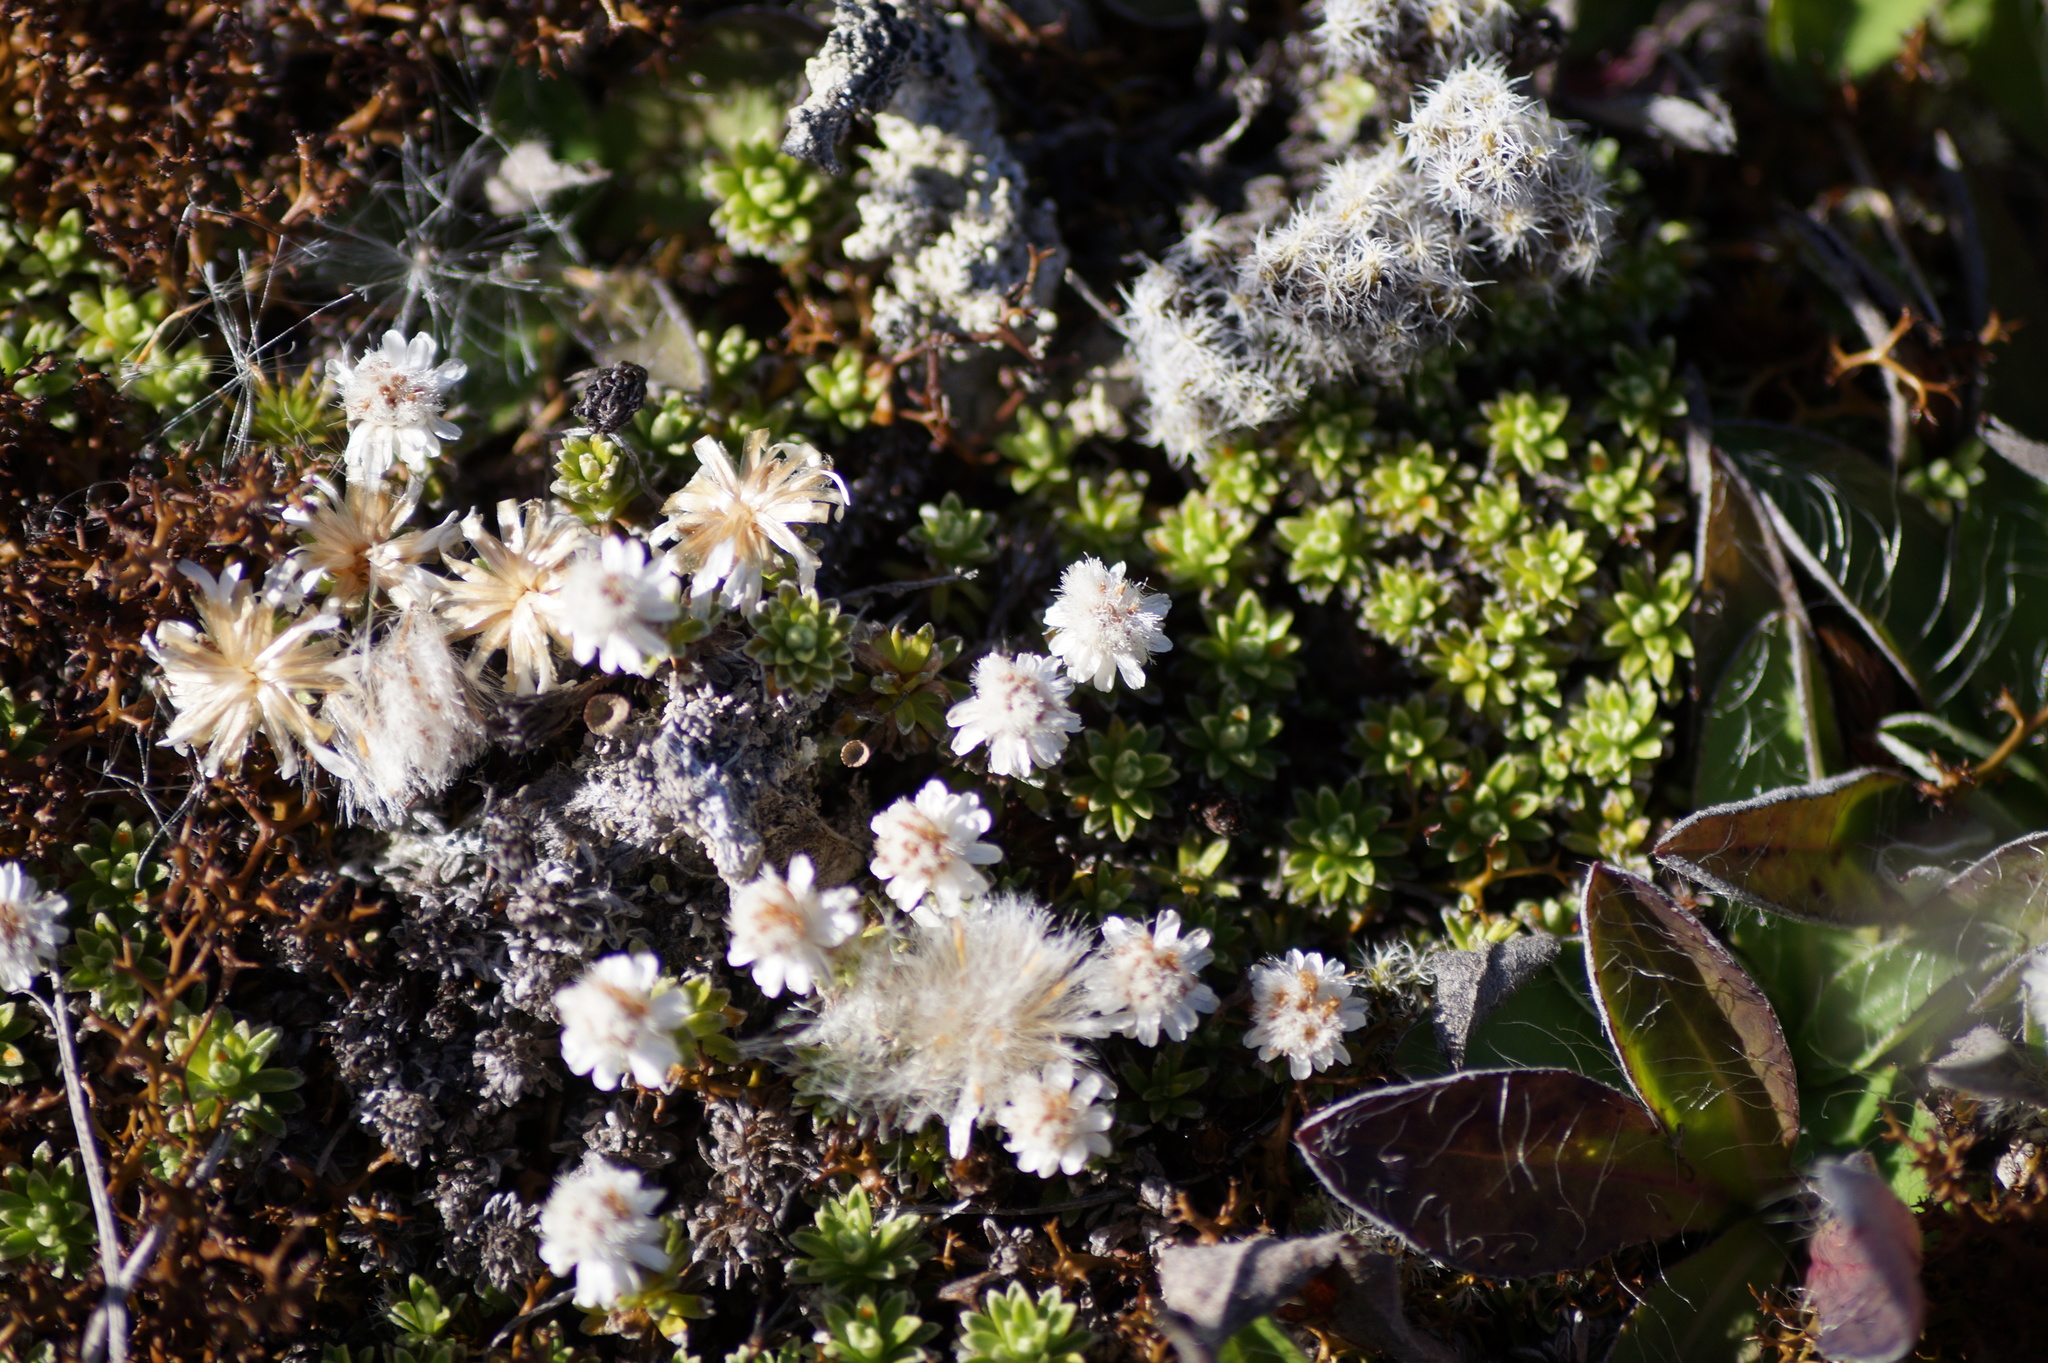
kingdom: Plantae
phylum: Tracheophyta
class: Magnoliopsida
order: Asterales
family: Asteraceae
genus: Raoulia
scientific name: Raoulia subsericea
